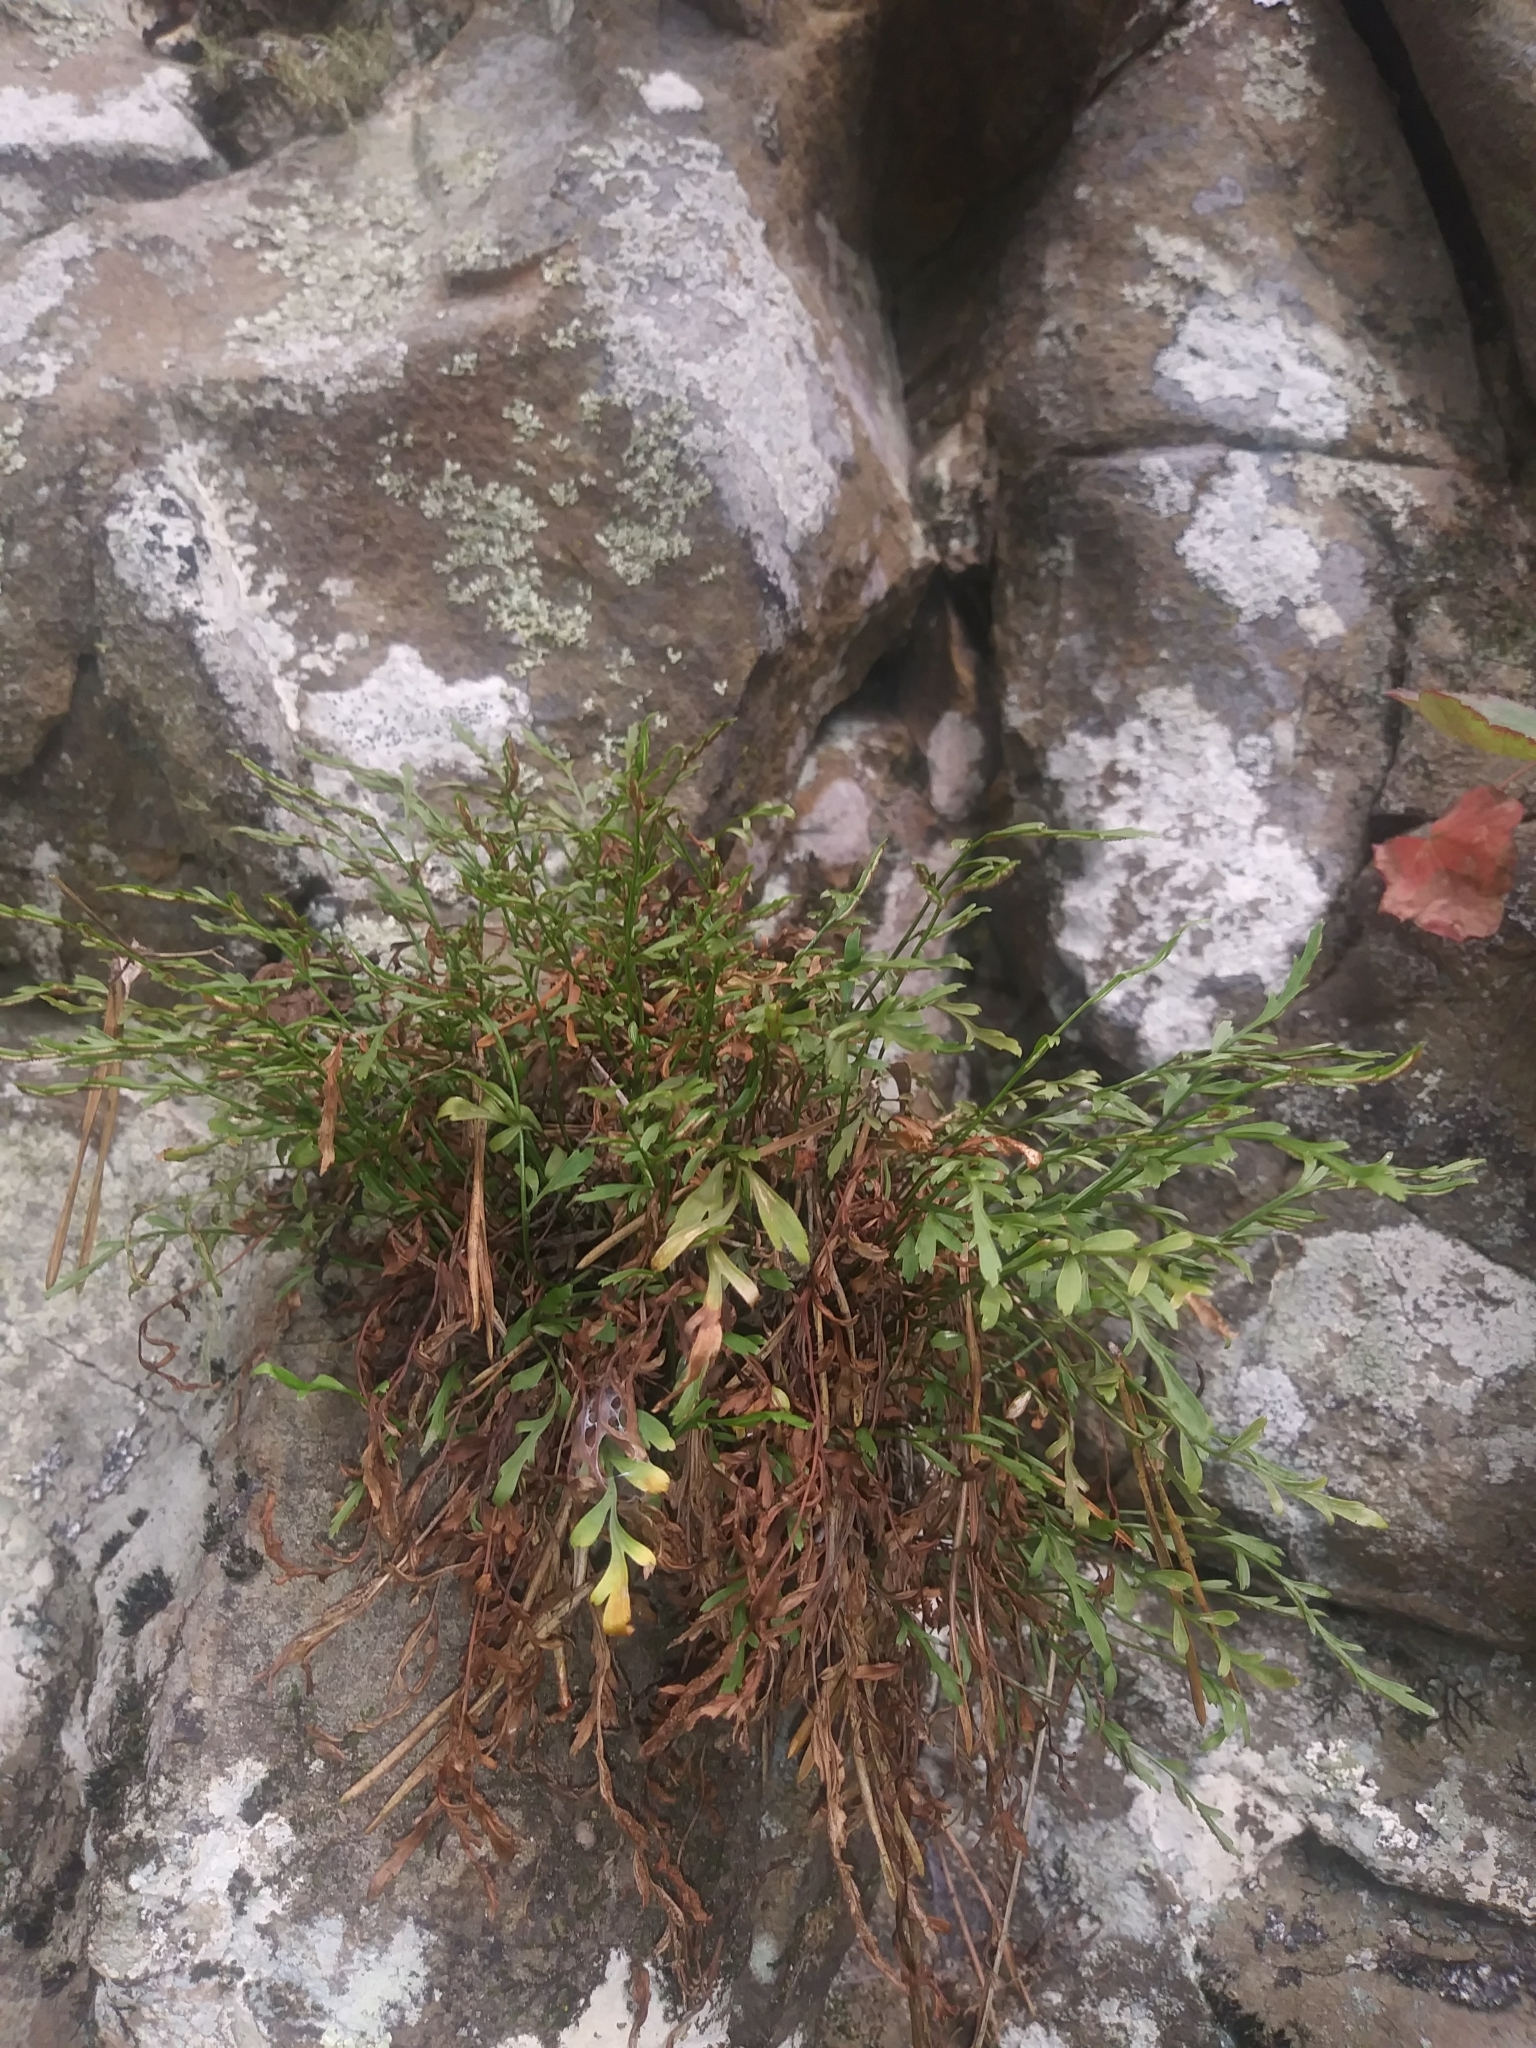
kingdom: Plantae
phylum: Tracheophyta
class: Polypodiopsida
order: Polypodiales
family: Aspleniaceae
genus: Asplenium
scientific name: Asplenium alternifolium
